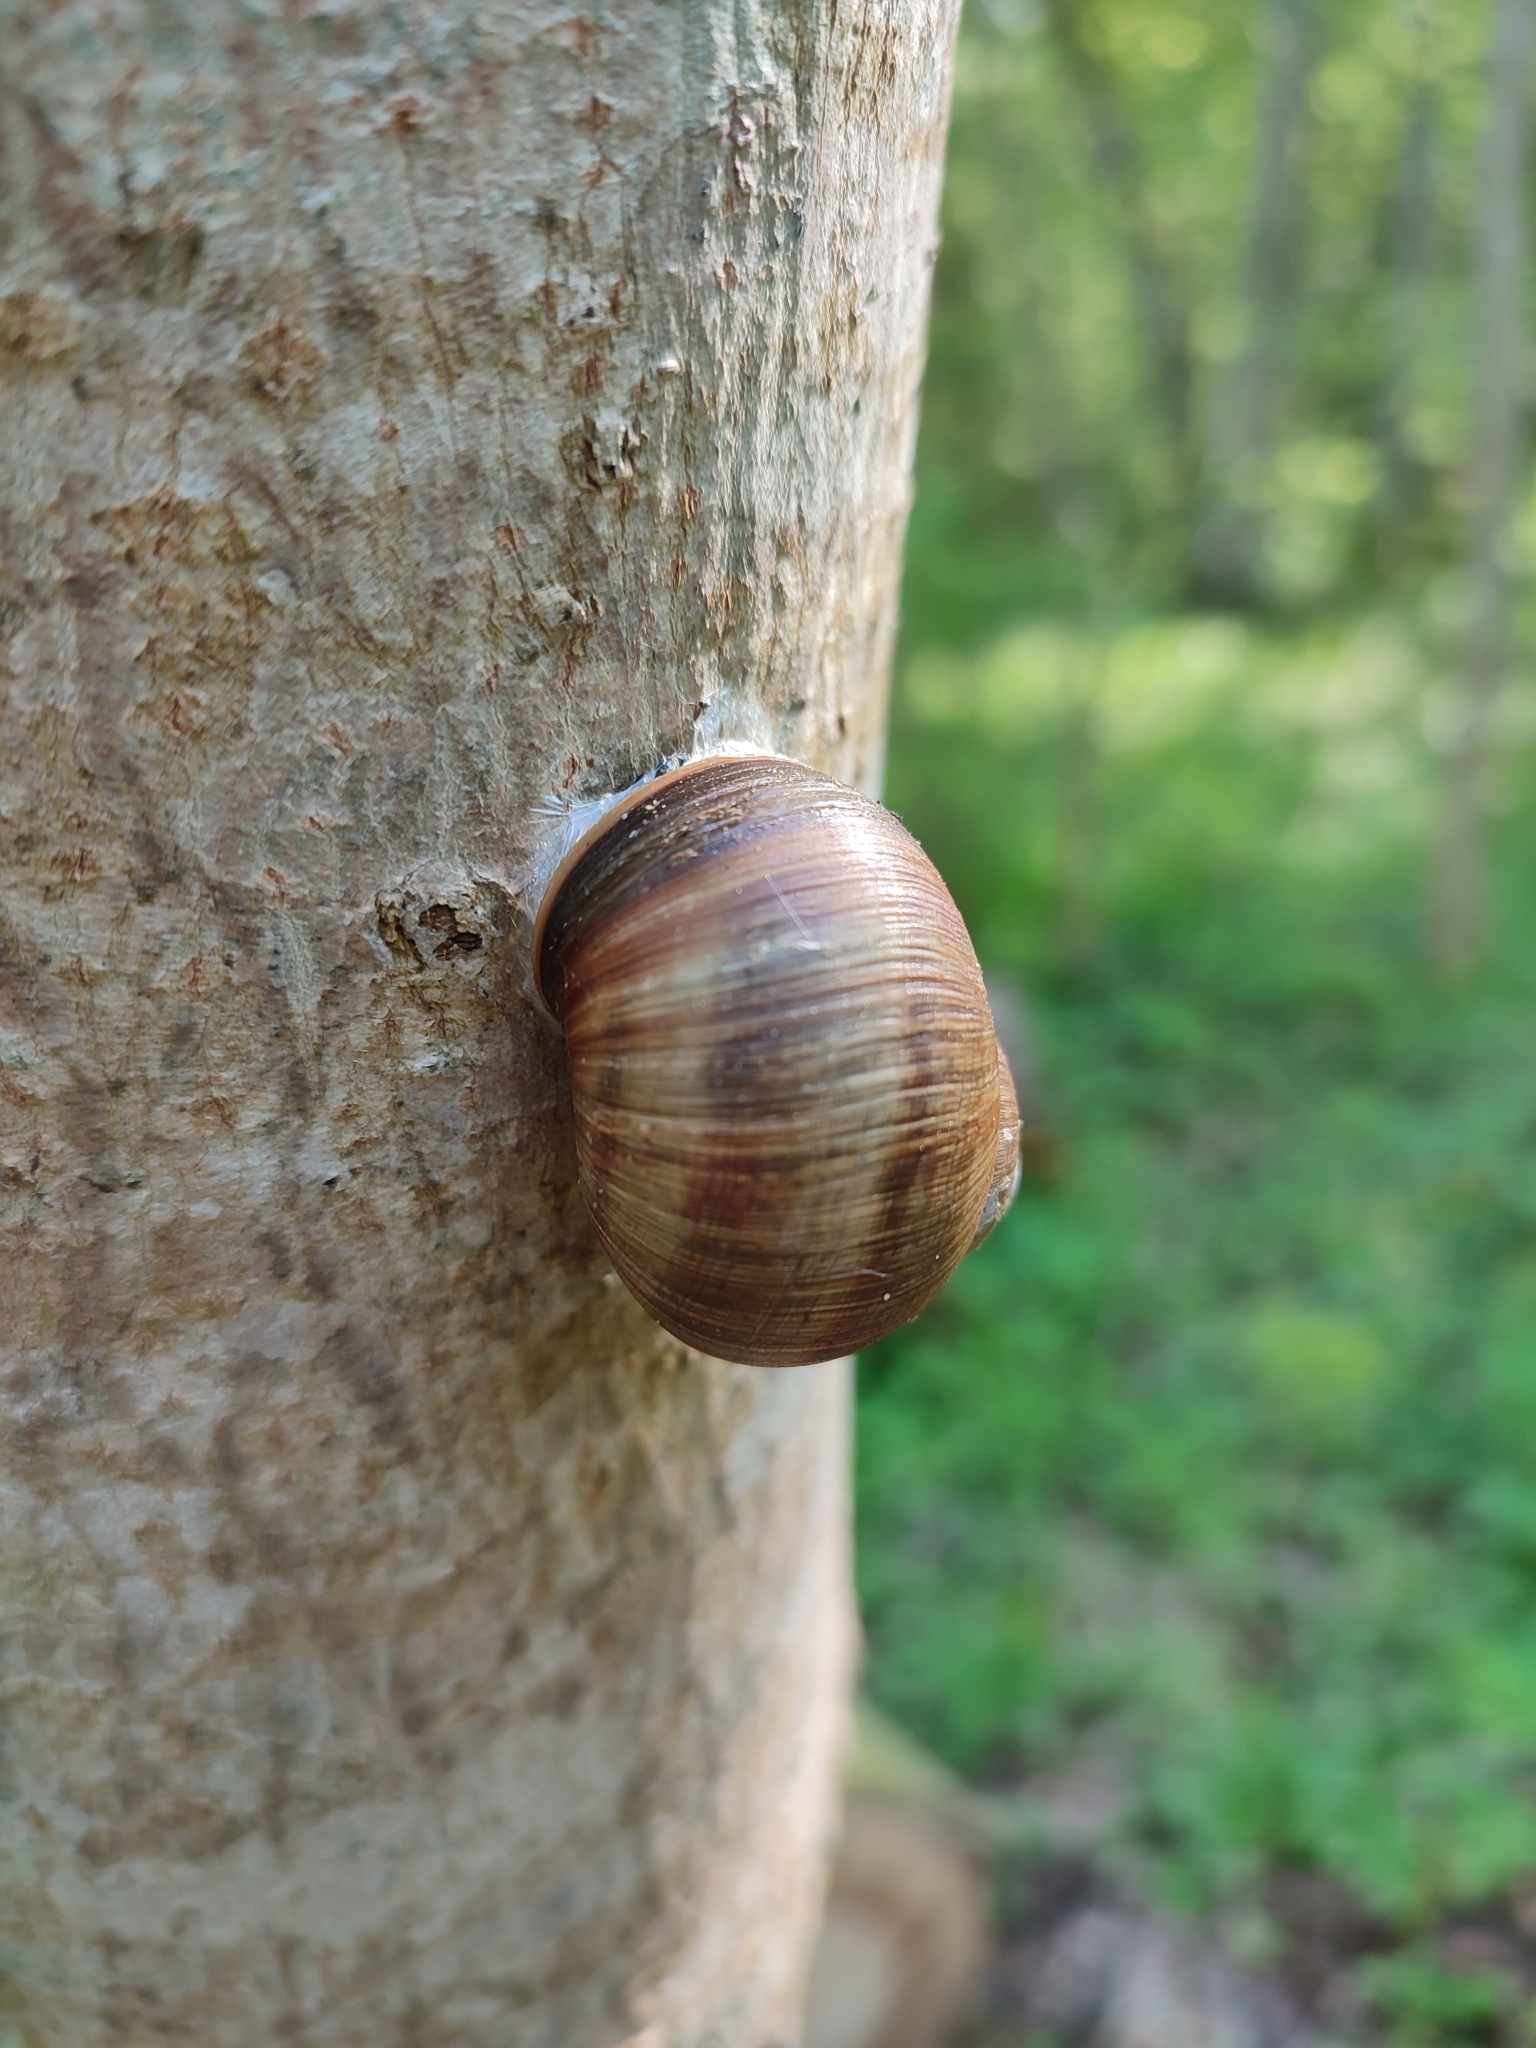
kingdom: Animalia
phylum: Mollusca
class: Gastropoda
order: Stylommatophora
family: Helicidae
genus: Helix
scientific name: Helix pomatia
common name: Roman snail
